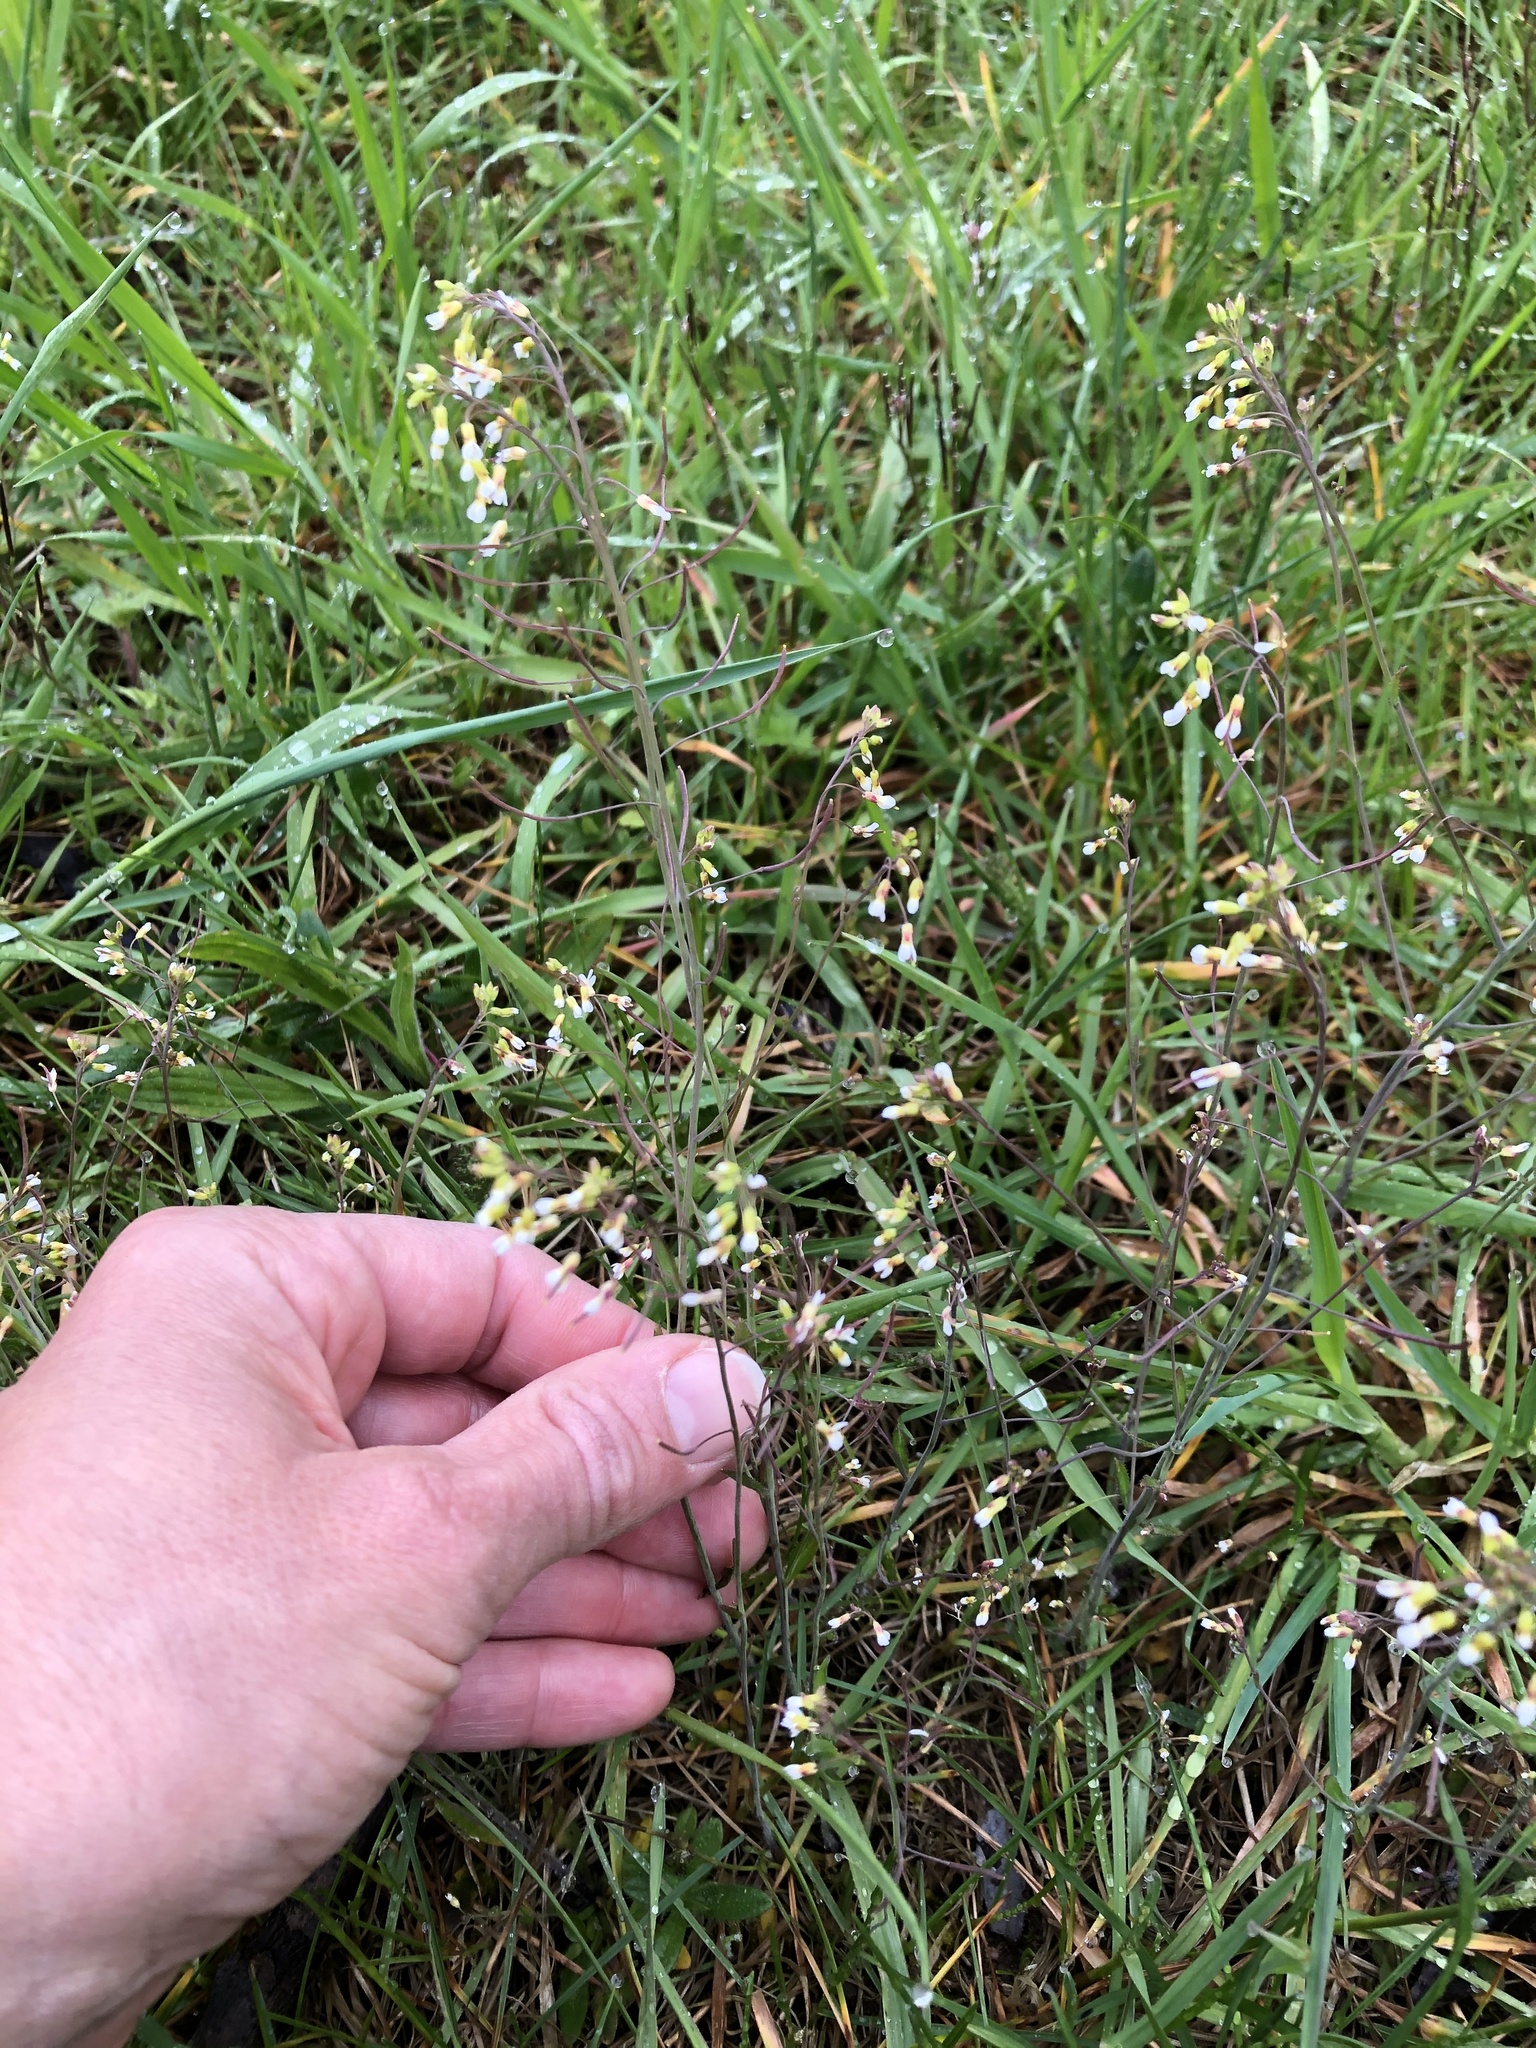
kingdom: Plantae
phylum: Tracheophyta
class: Magnoliopsida
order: Brassicales
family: Brassicaceae
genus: Arabidopsis
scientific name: Arabidopsis thaliana
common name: Thale cress
